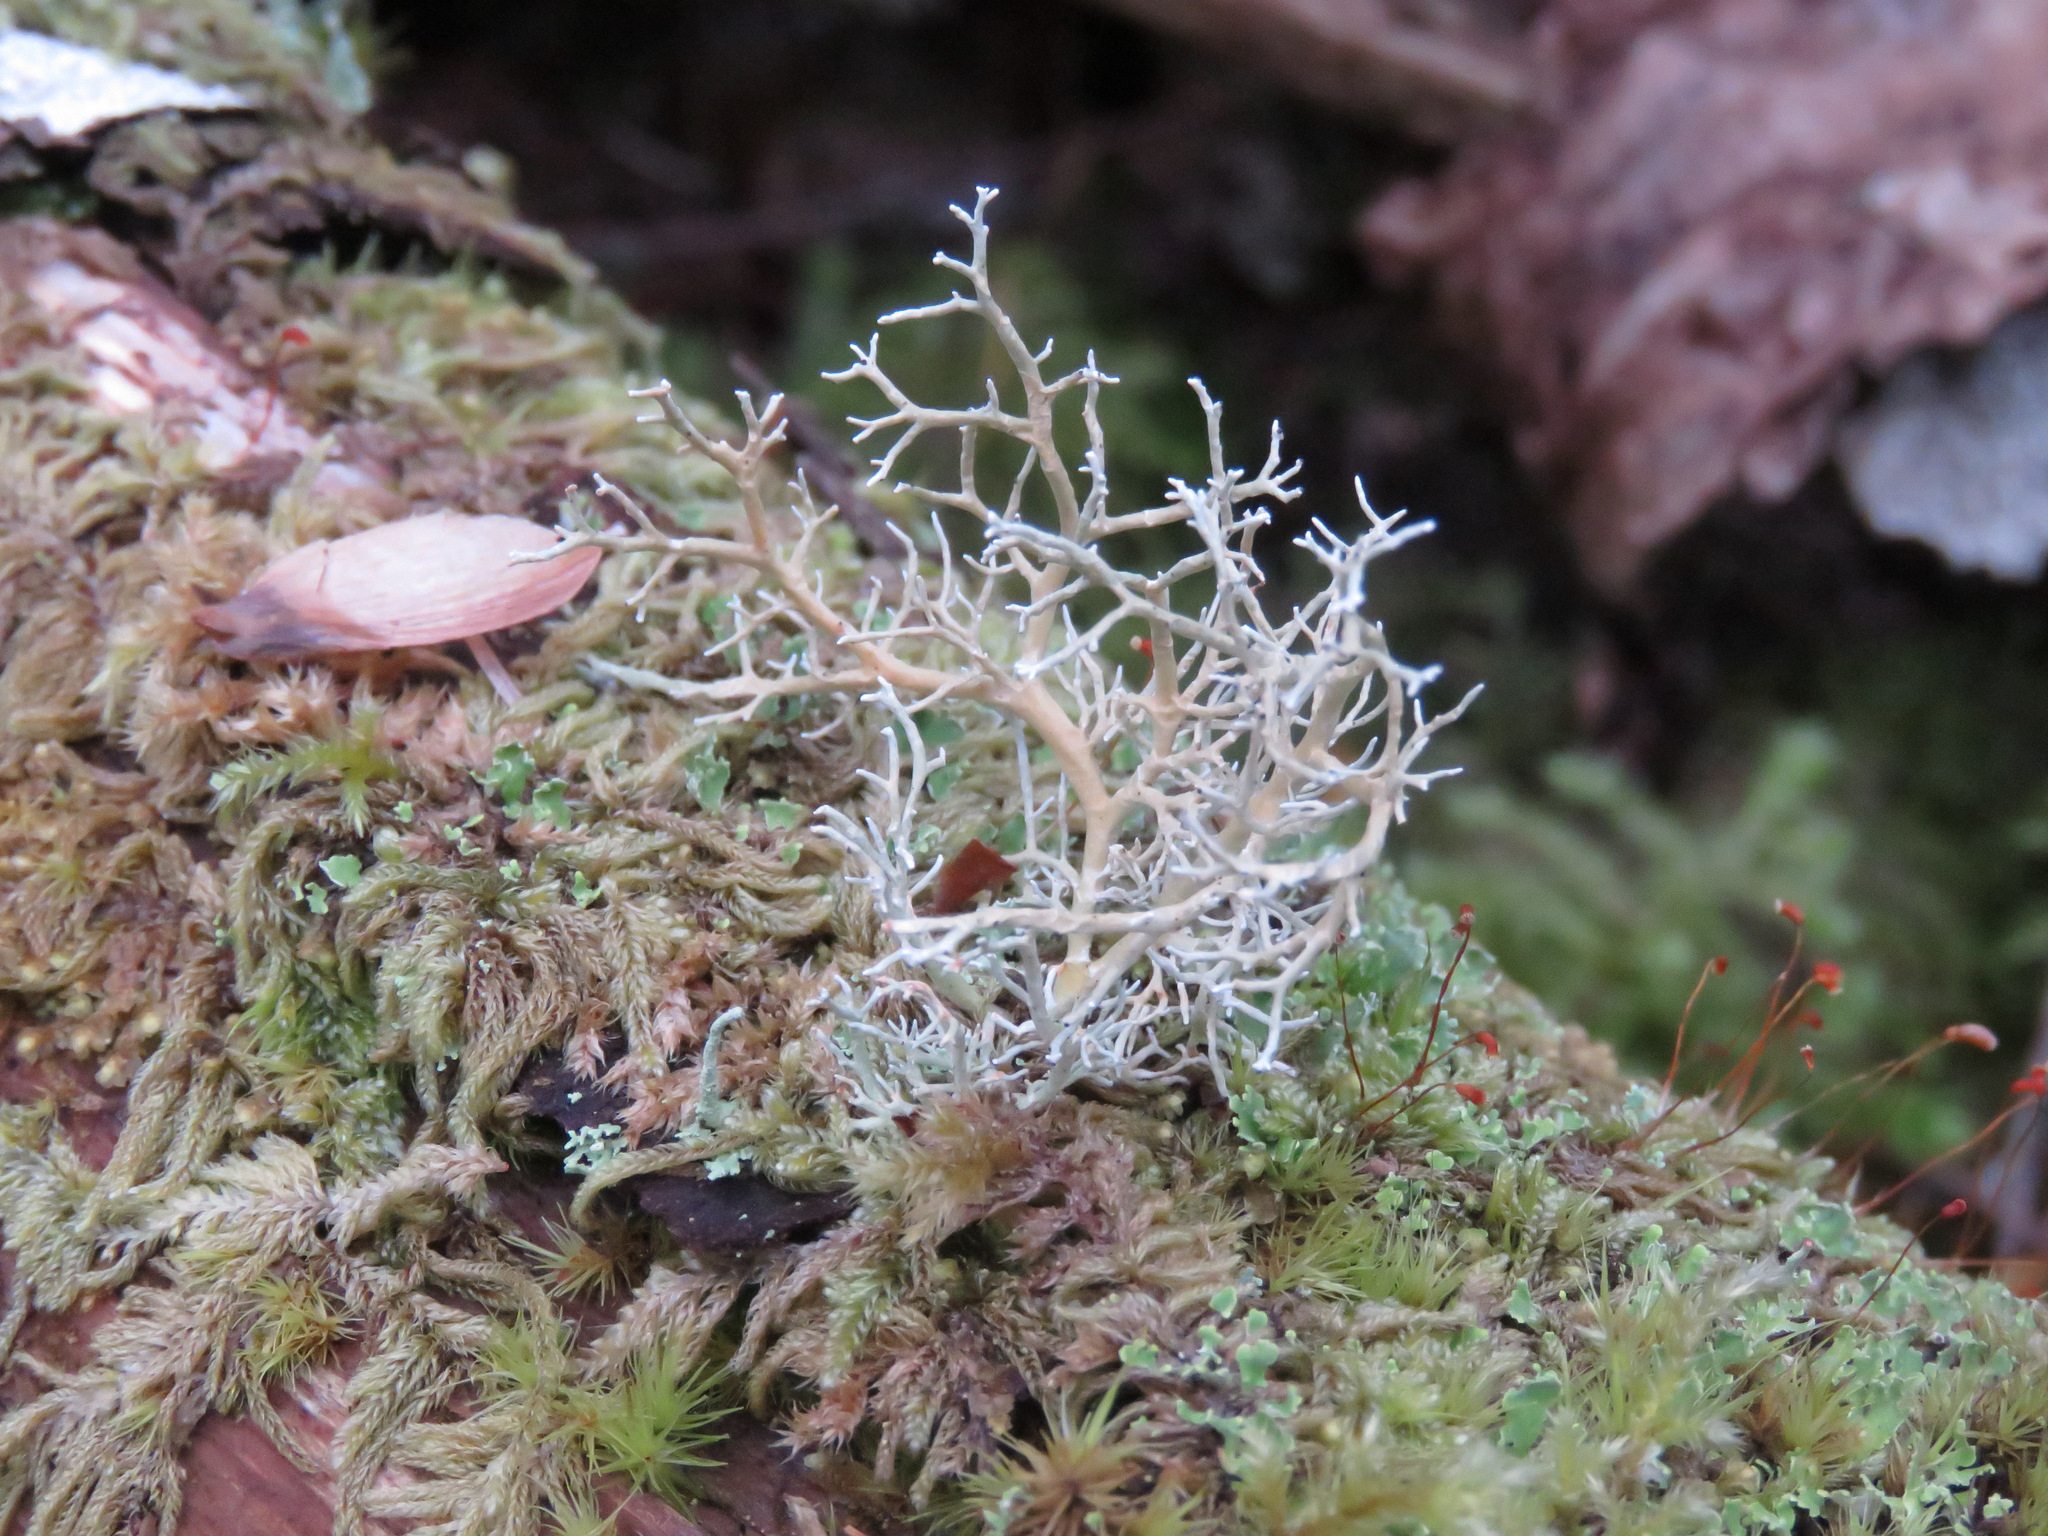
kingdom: Fungi
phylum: Ascomycota
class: Lecanoromycetes
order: Lecanorales
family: Sphaerophoraceae
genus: Sphaerophorus
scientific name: Sphaerophorus globosus
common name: Globe ball lichen
